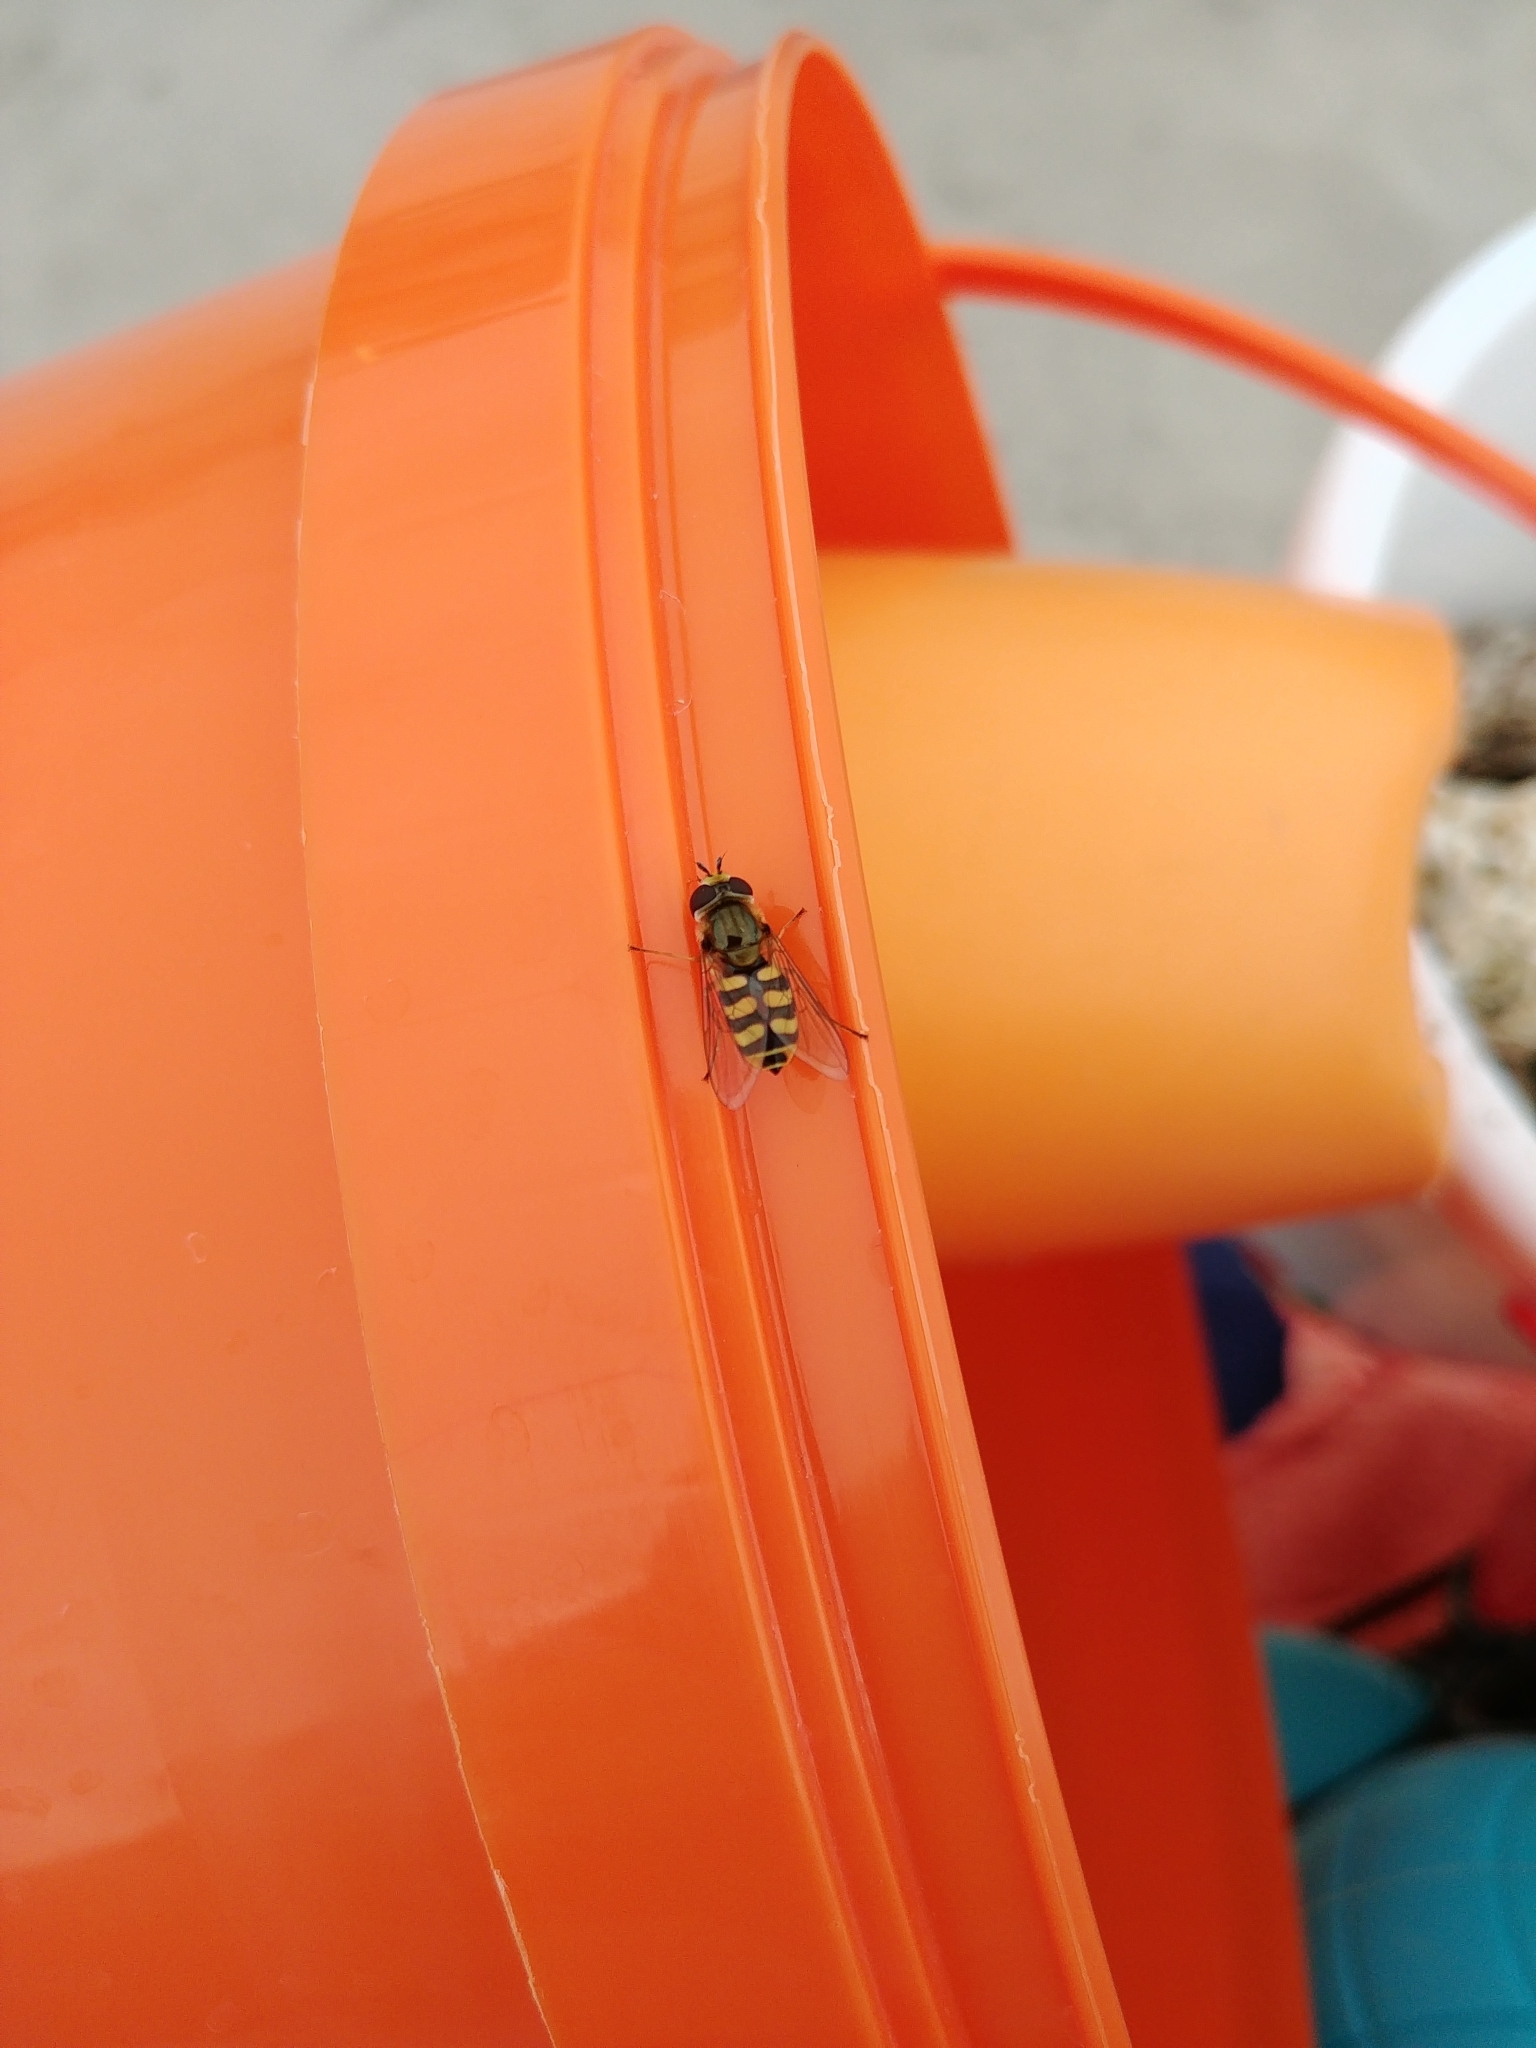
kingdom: Animalia
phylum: Arthropoda
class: Insecta
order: Diptera
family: Syrphidae
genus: Eupeodes
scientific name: Eupeodes corollae
